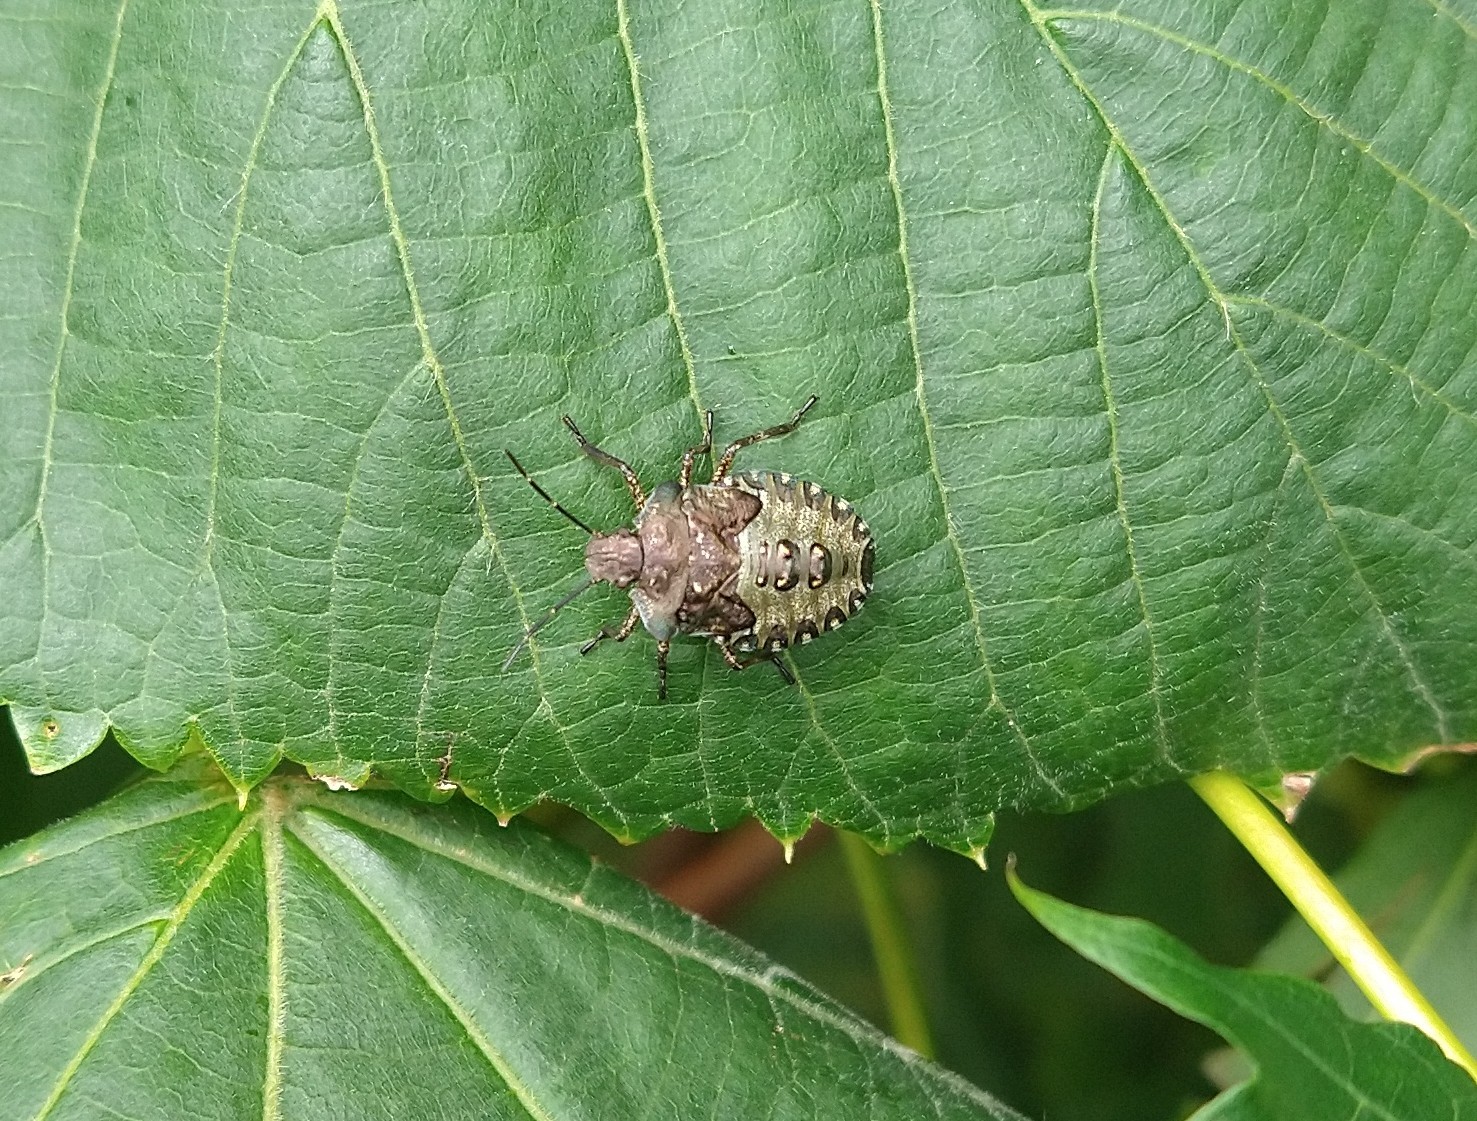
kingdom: Animalia
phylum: Arthropoda
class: Insecta
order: Hemiptera
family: Pentatomidae
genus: Pentatoma
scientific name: Pentatoma rufipes
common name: Forest bug
